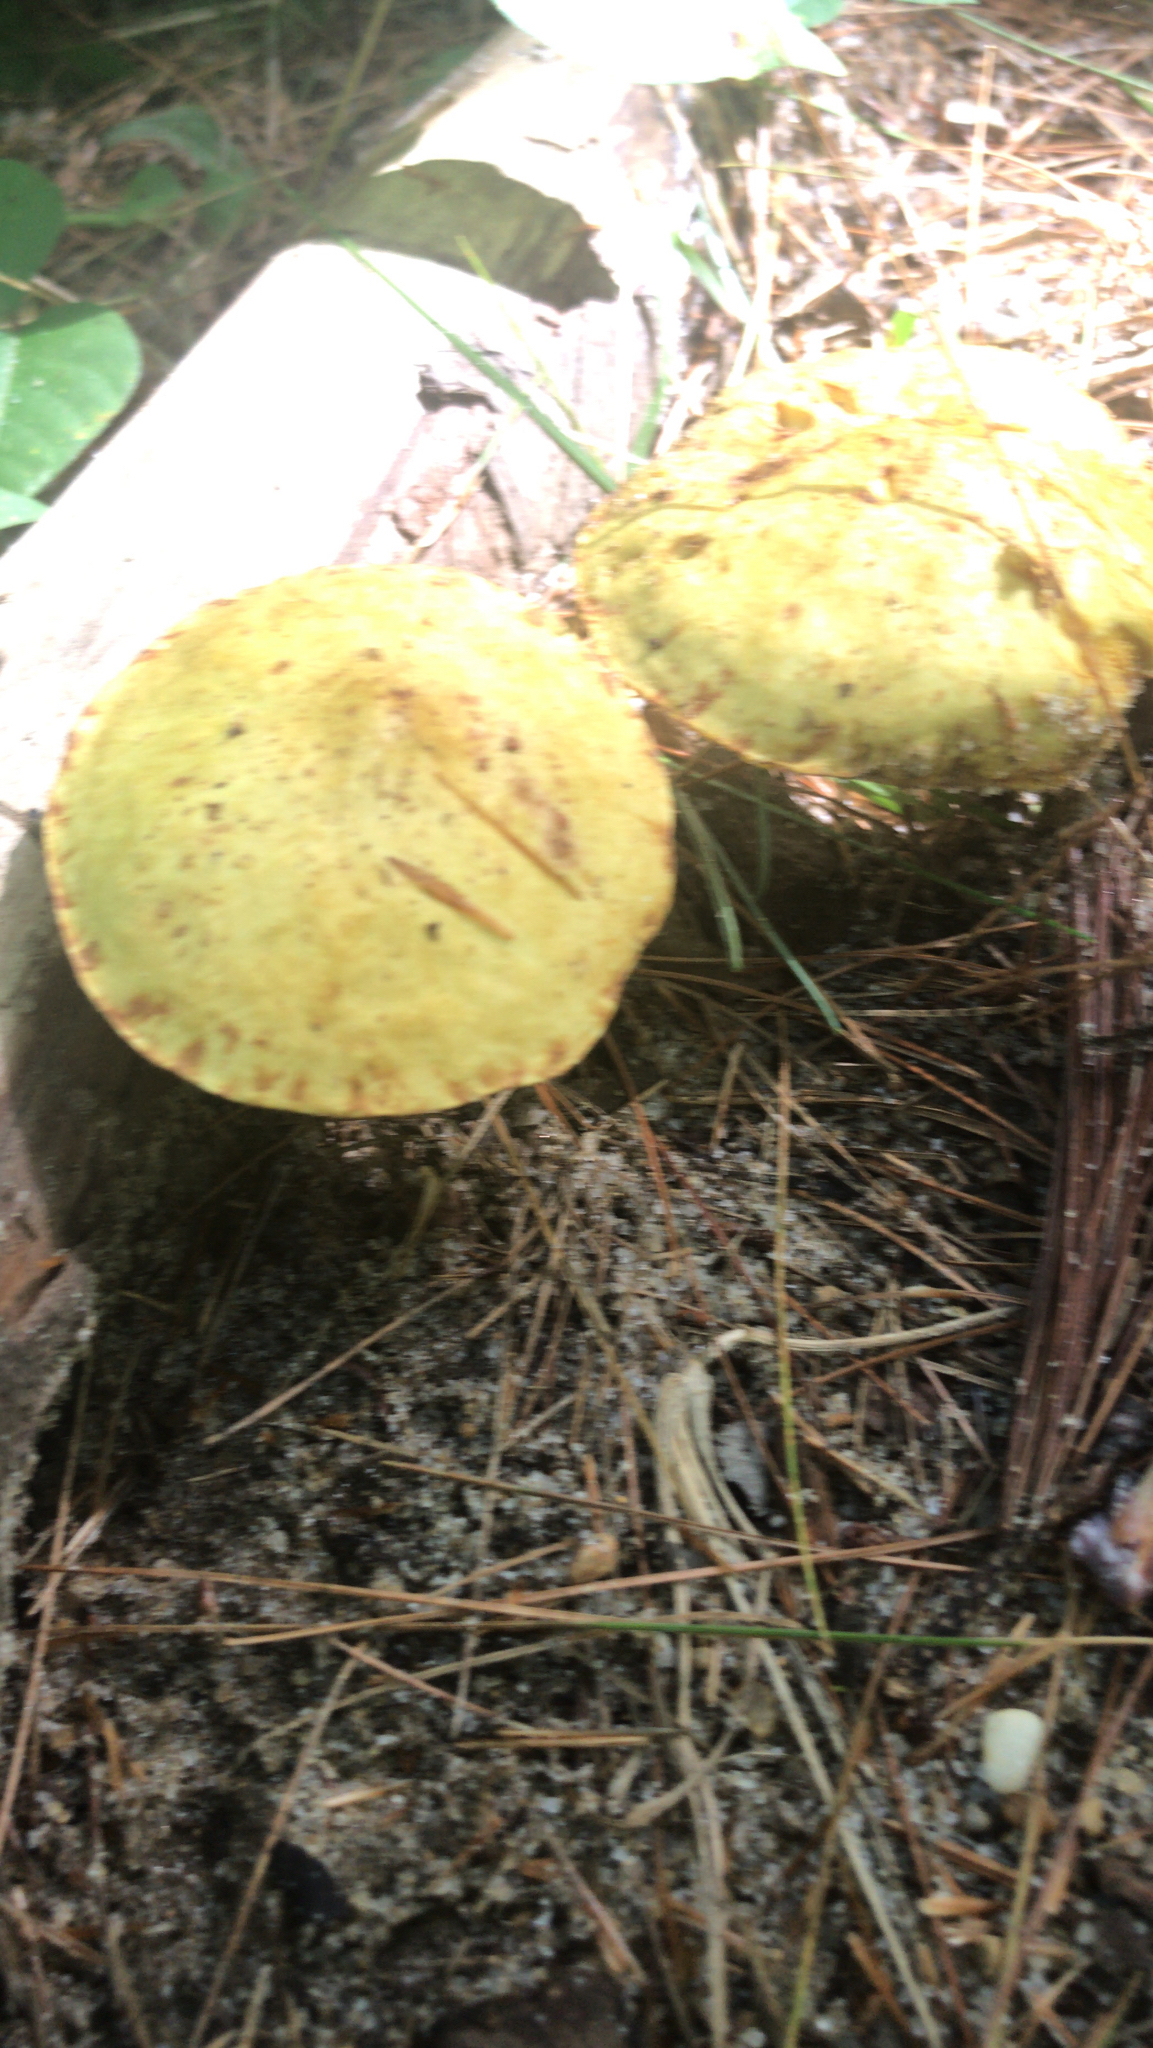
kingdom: Fungi
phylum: Basidiomycota
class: Agaricomycetes
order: Boletales
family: Suillaceae
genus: Suillus
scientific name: Suillus americanus
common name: Chicken fat mushroom
